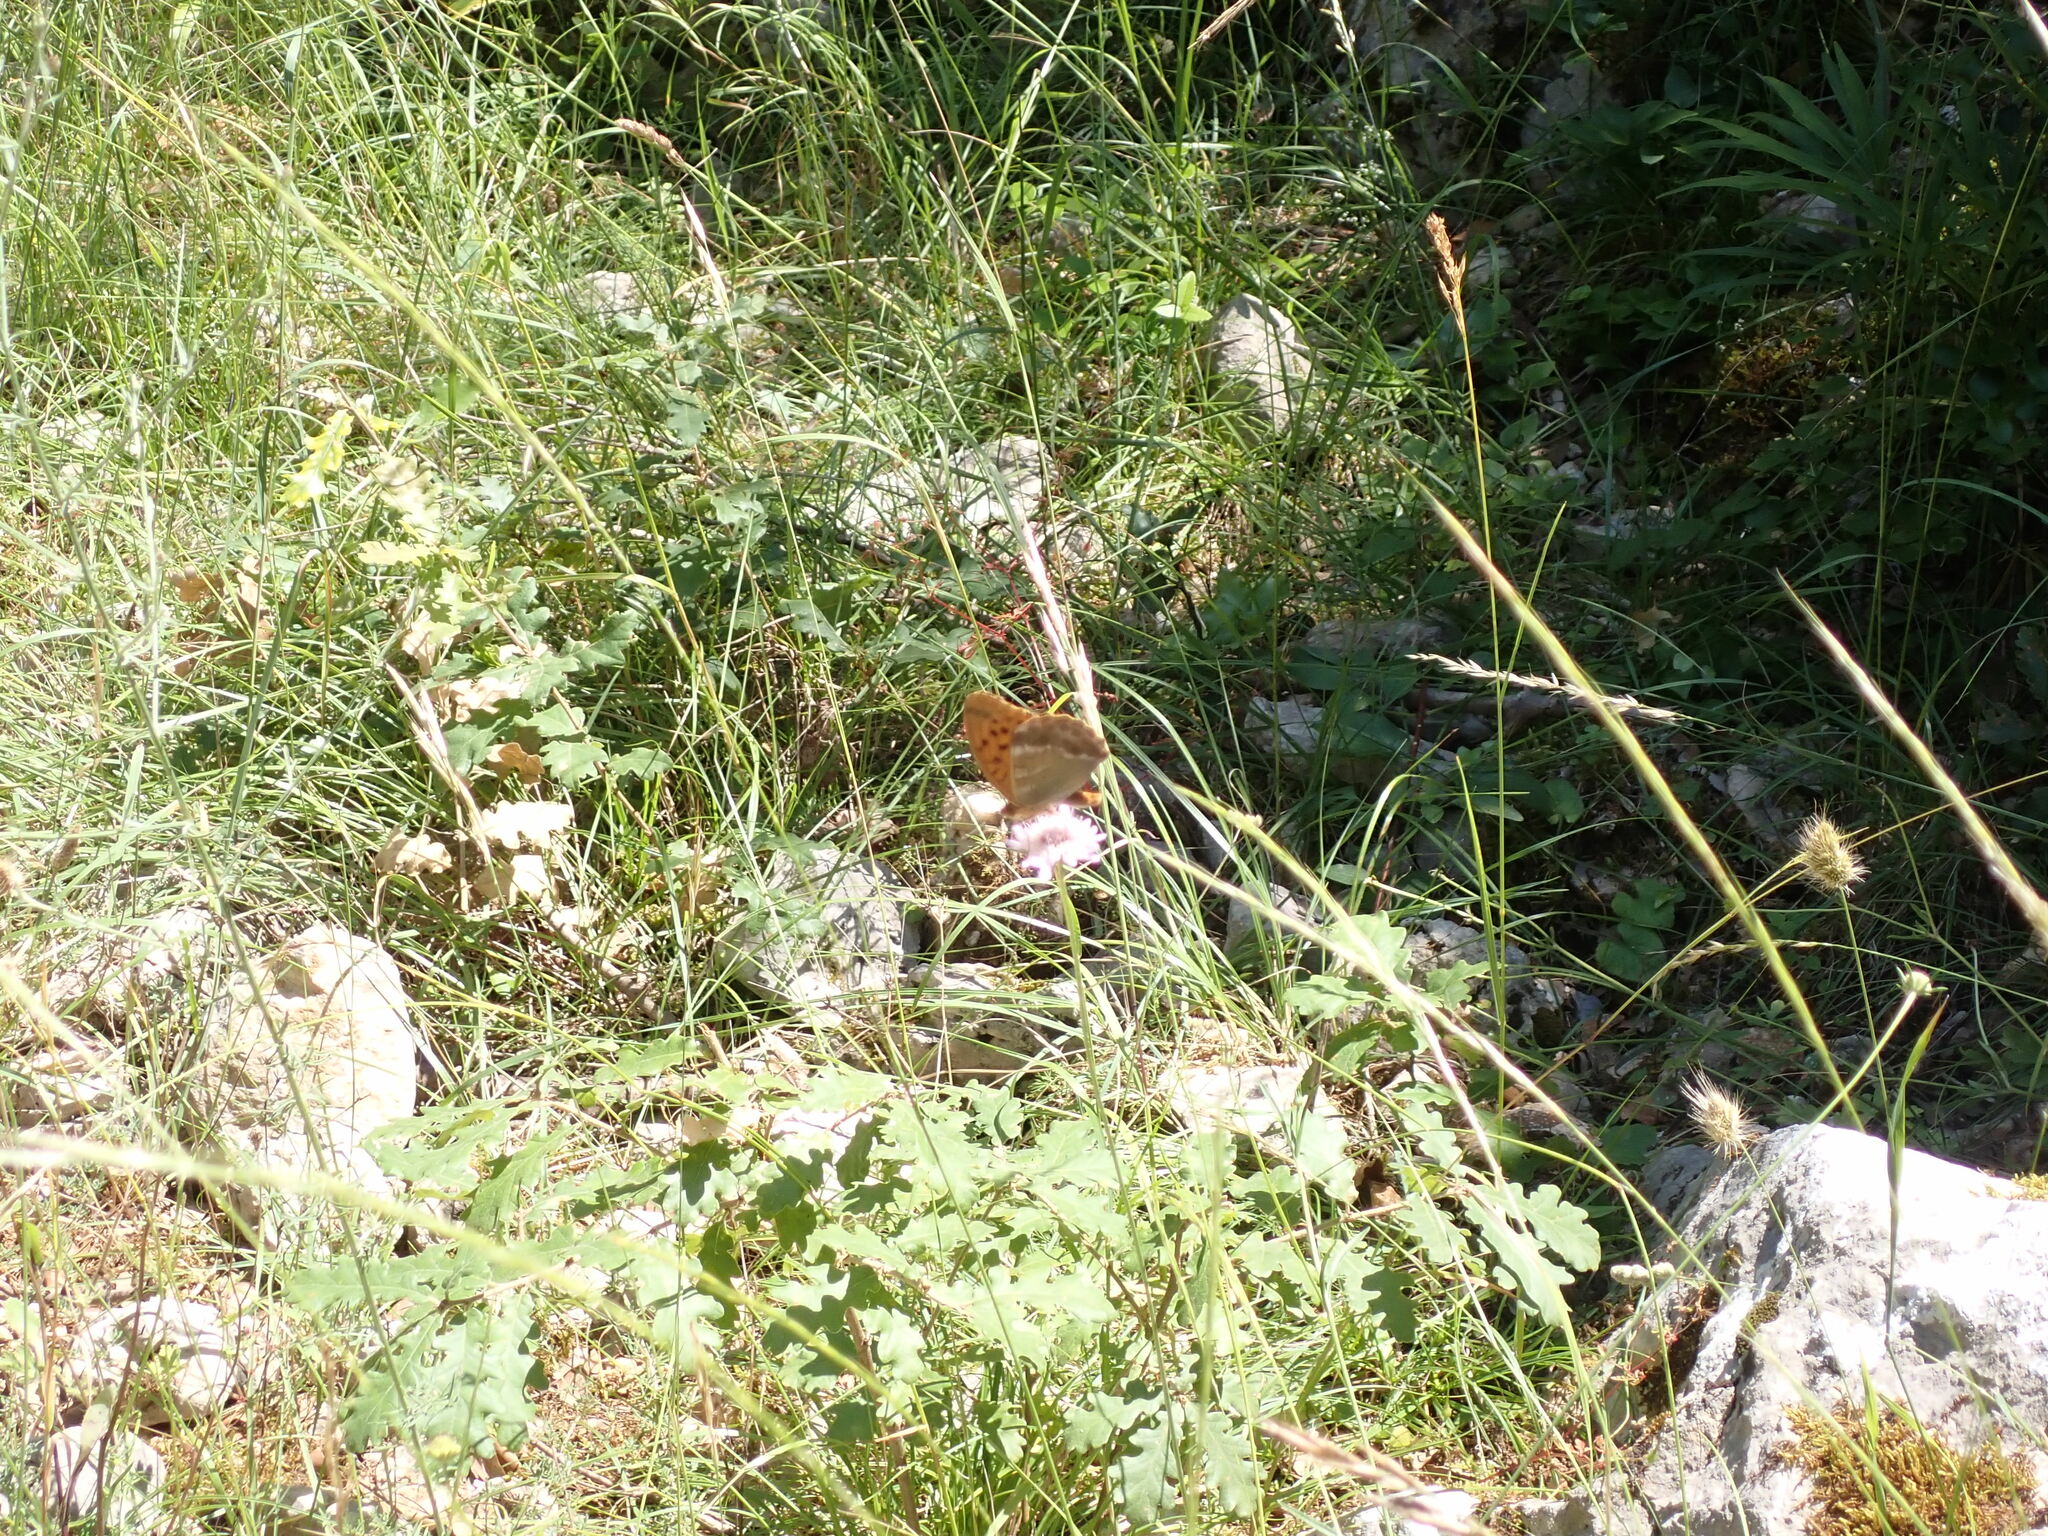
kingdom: Animalia
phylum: Arthropoda
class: Insecta
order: Lepidoptera
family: Nymphalidae
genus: Argynnis
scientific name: Argynnis paphia
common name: Silver-washed fritillary
